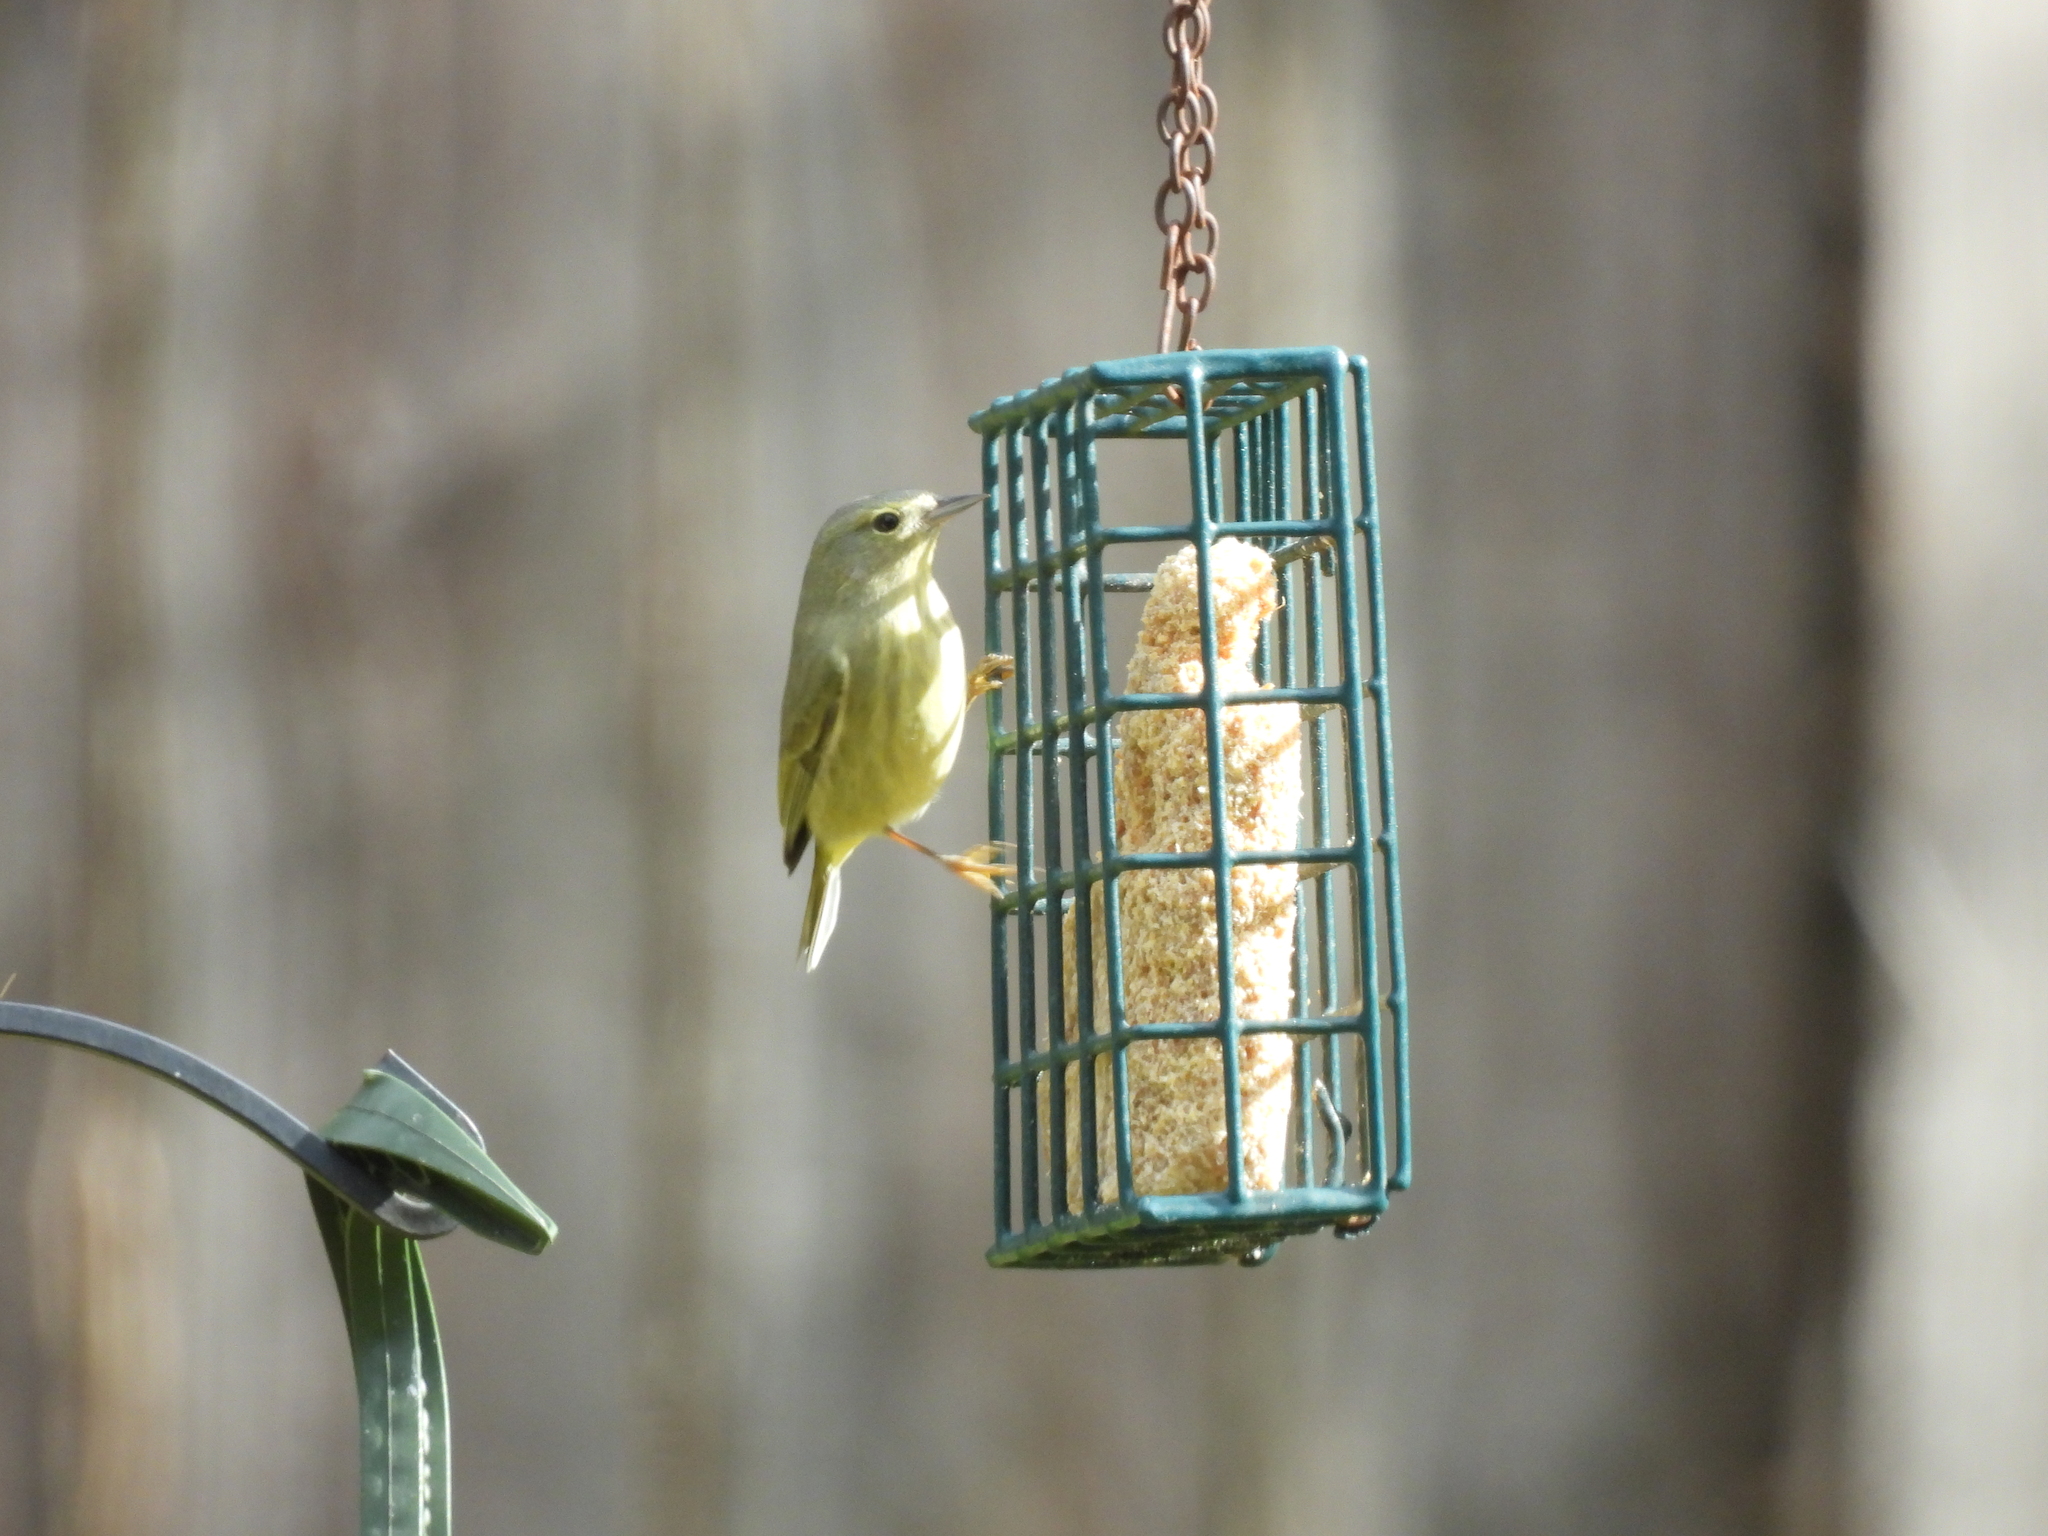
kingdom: Animalia
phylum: Chordata
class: Aves
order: Passeriformes
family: Parulidae
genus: Leiothlypis
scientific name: Leiothlypis celata
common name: Orange-crowned warbler
